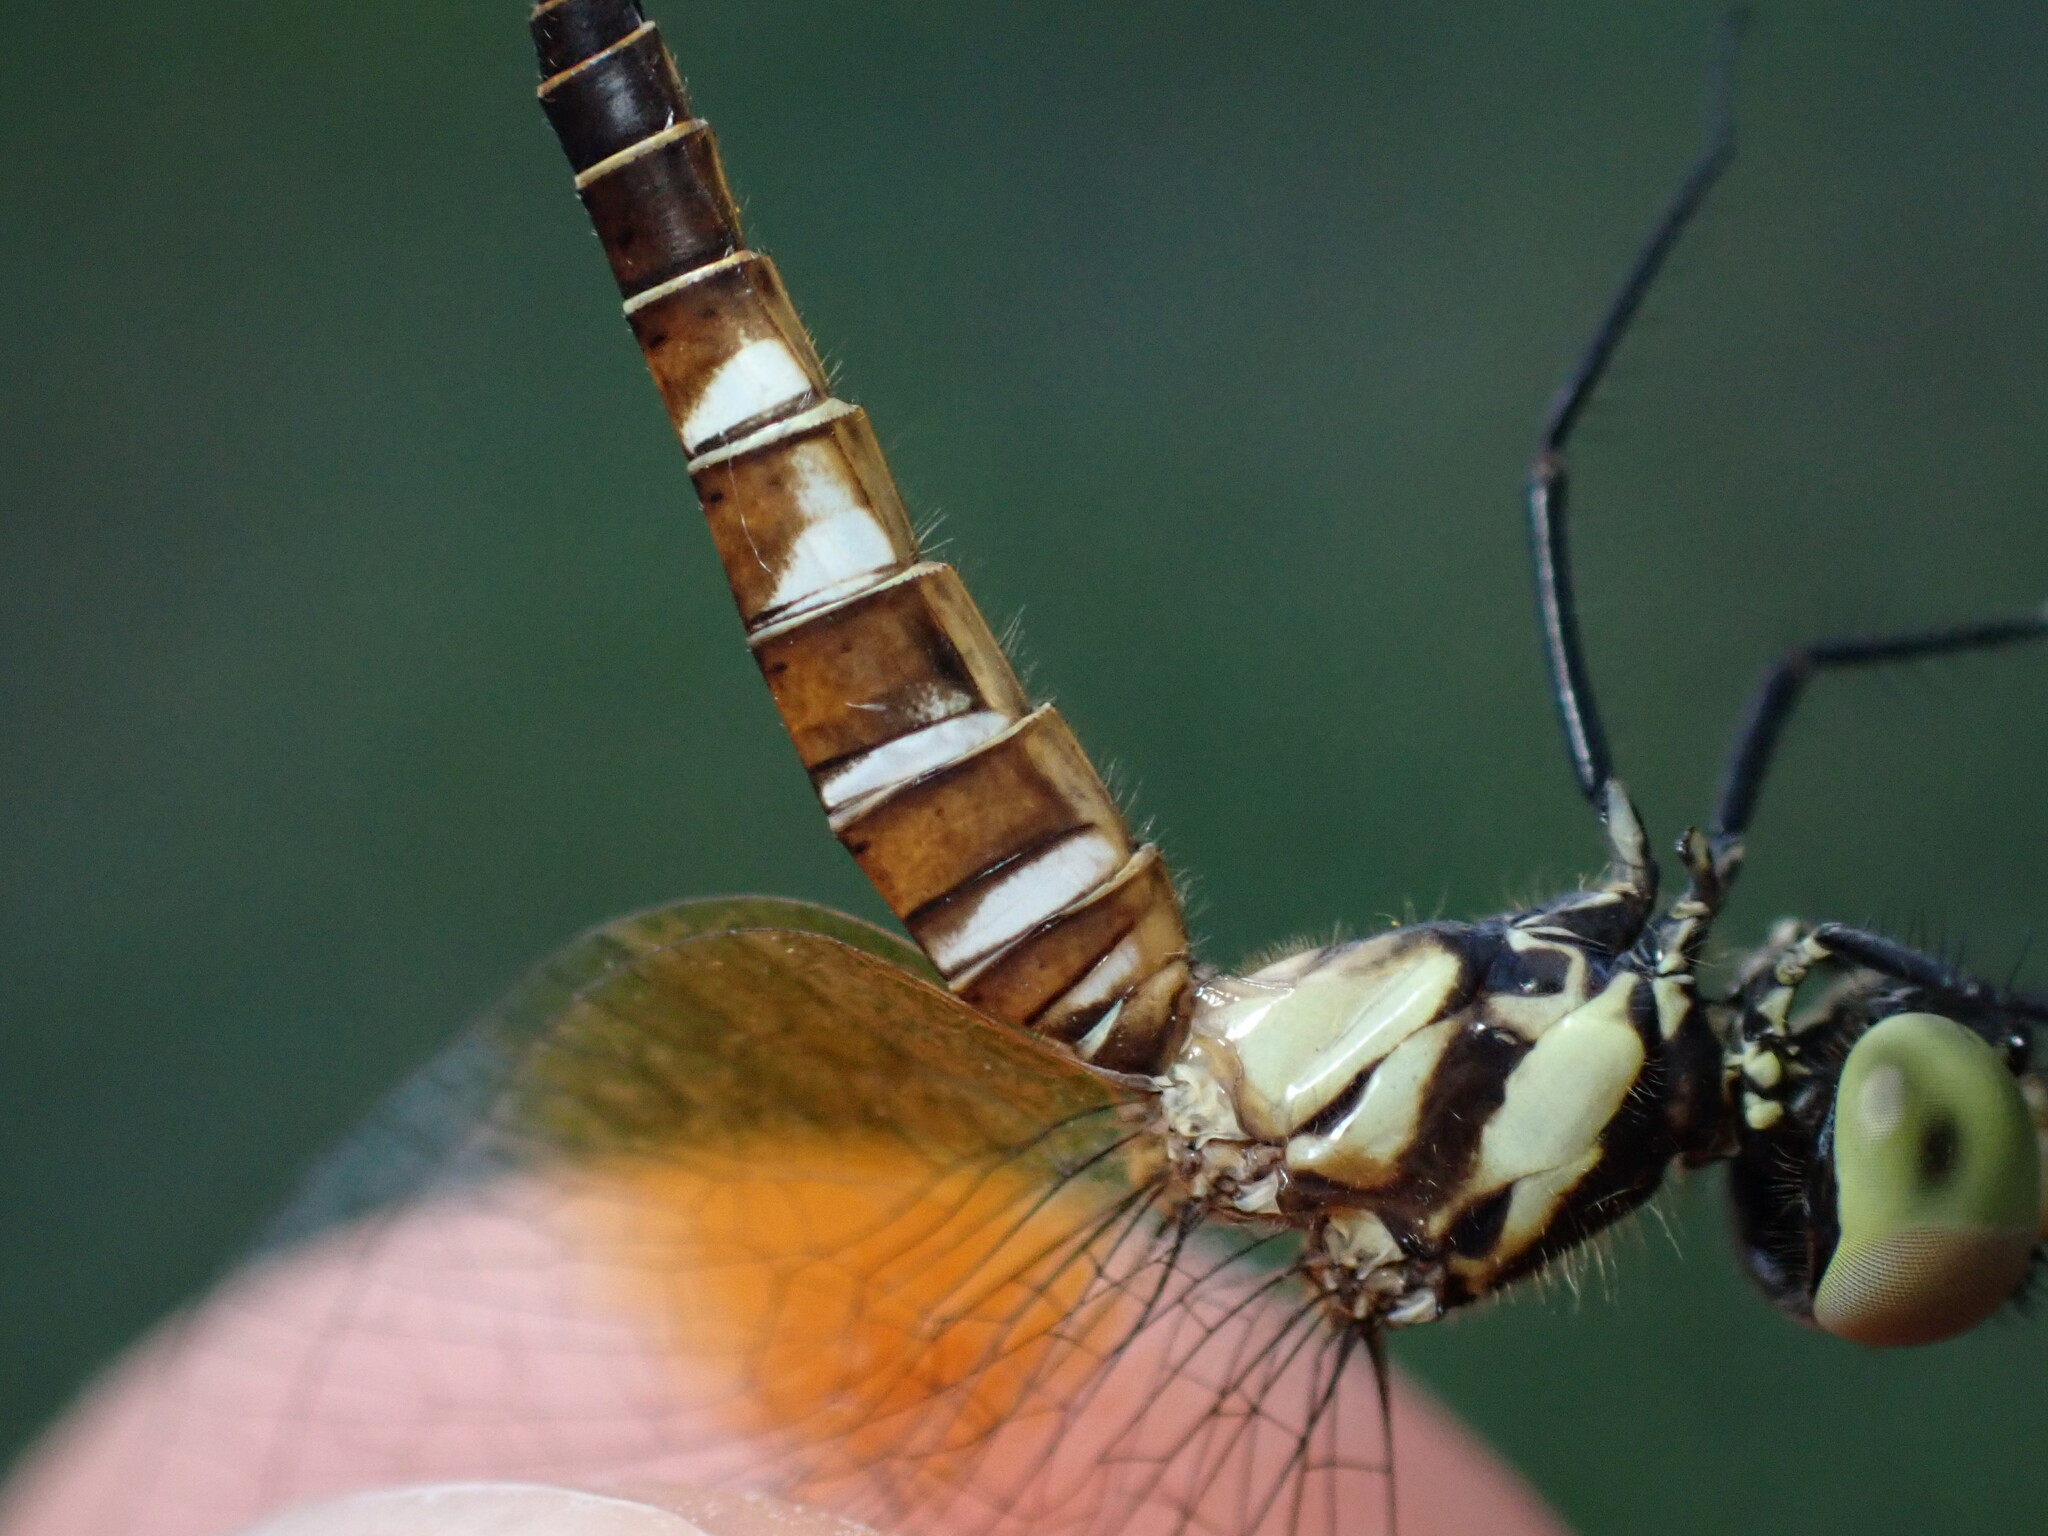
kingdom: Animalia
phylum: Arthropoda
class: Insecta
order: Odonata
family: Libellulidae
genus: Nannophya
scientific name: Nannophya pygmaea
